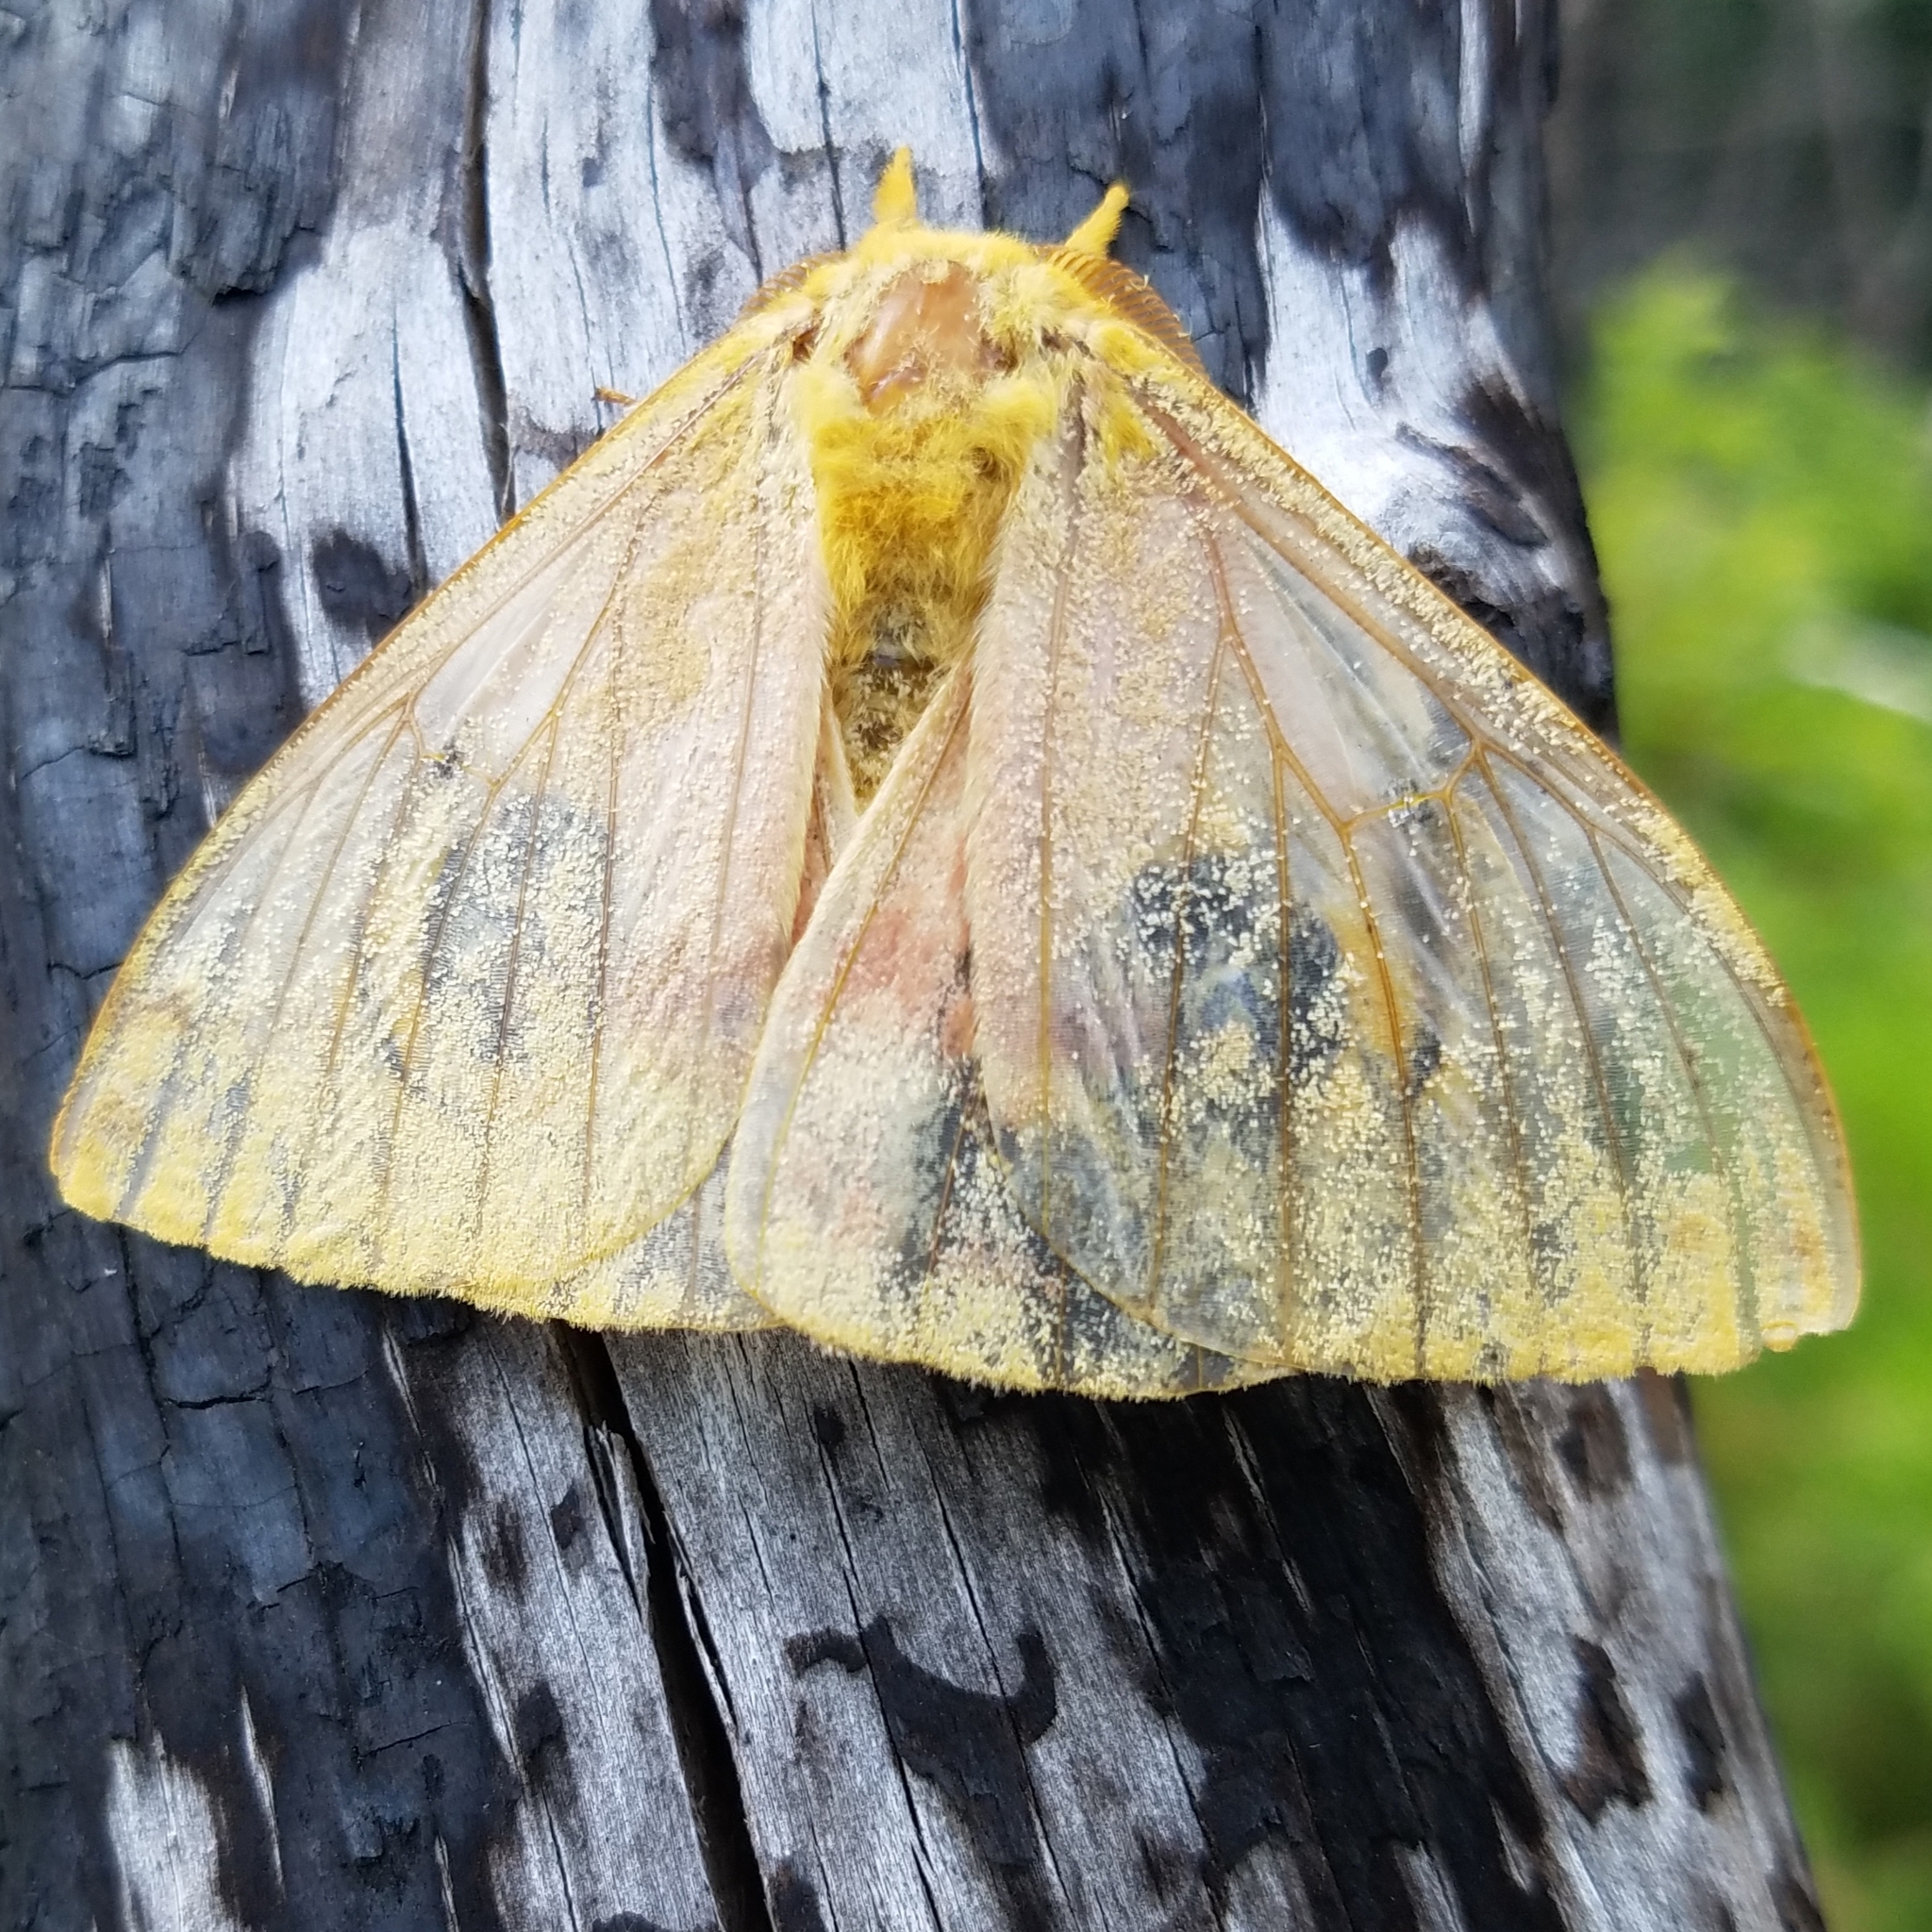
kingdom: Animalia
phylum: Arthropoda
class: Insecta
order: Lepidoptera
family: Saturniidae
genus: Automeris
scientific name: Automeris io
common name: Io moth
